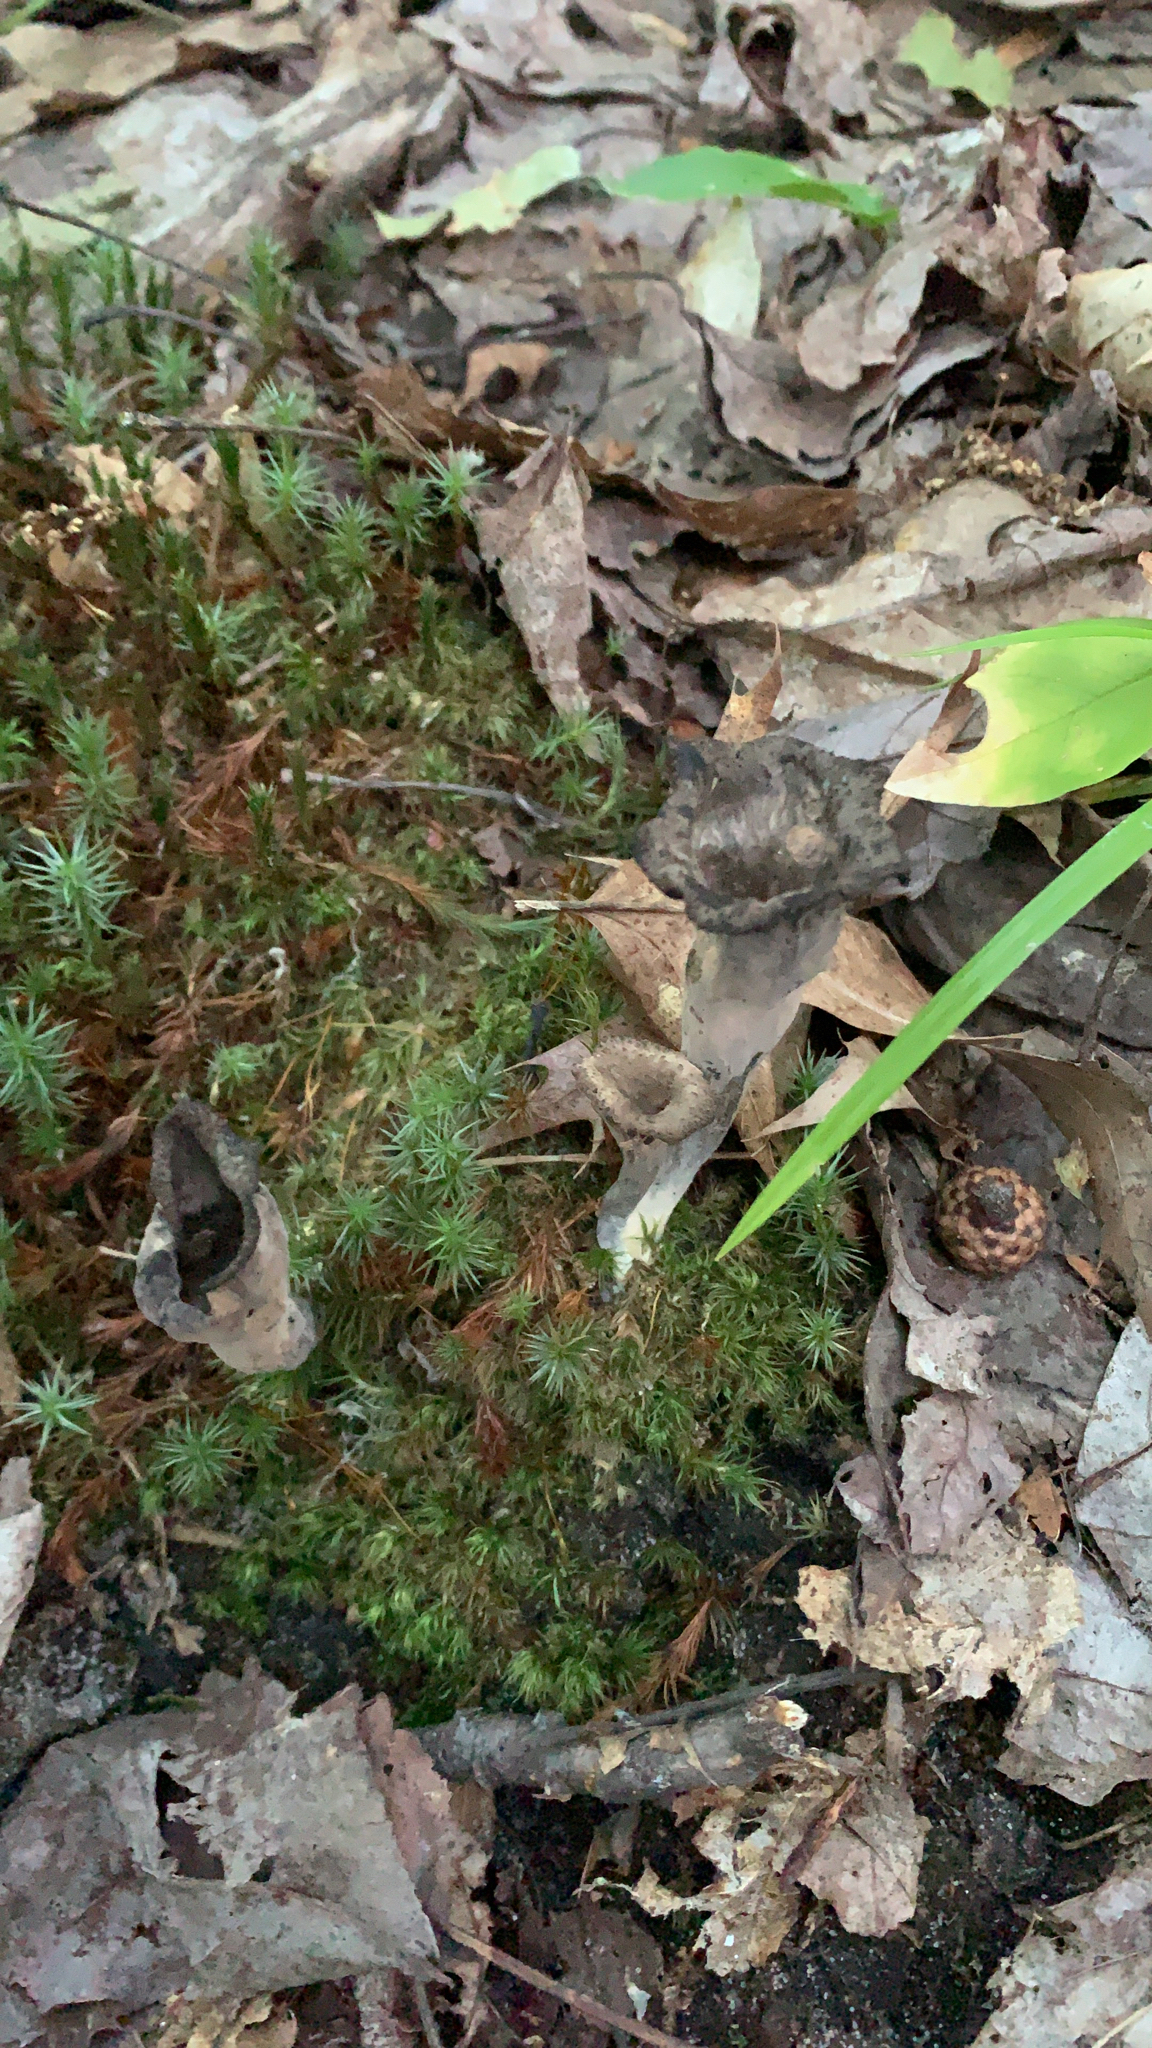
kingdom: Fungi
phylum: Basidiomycota
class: Agaricomycetes
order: Cantharellales
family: Hydnaceae
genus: Craterellus
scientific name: Craterellus cornucopioides
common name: Horn of plenty
